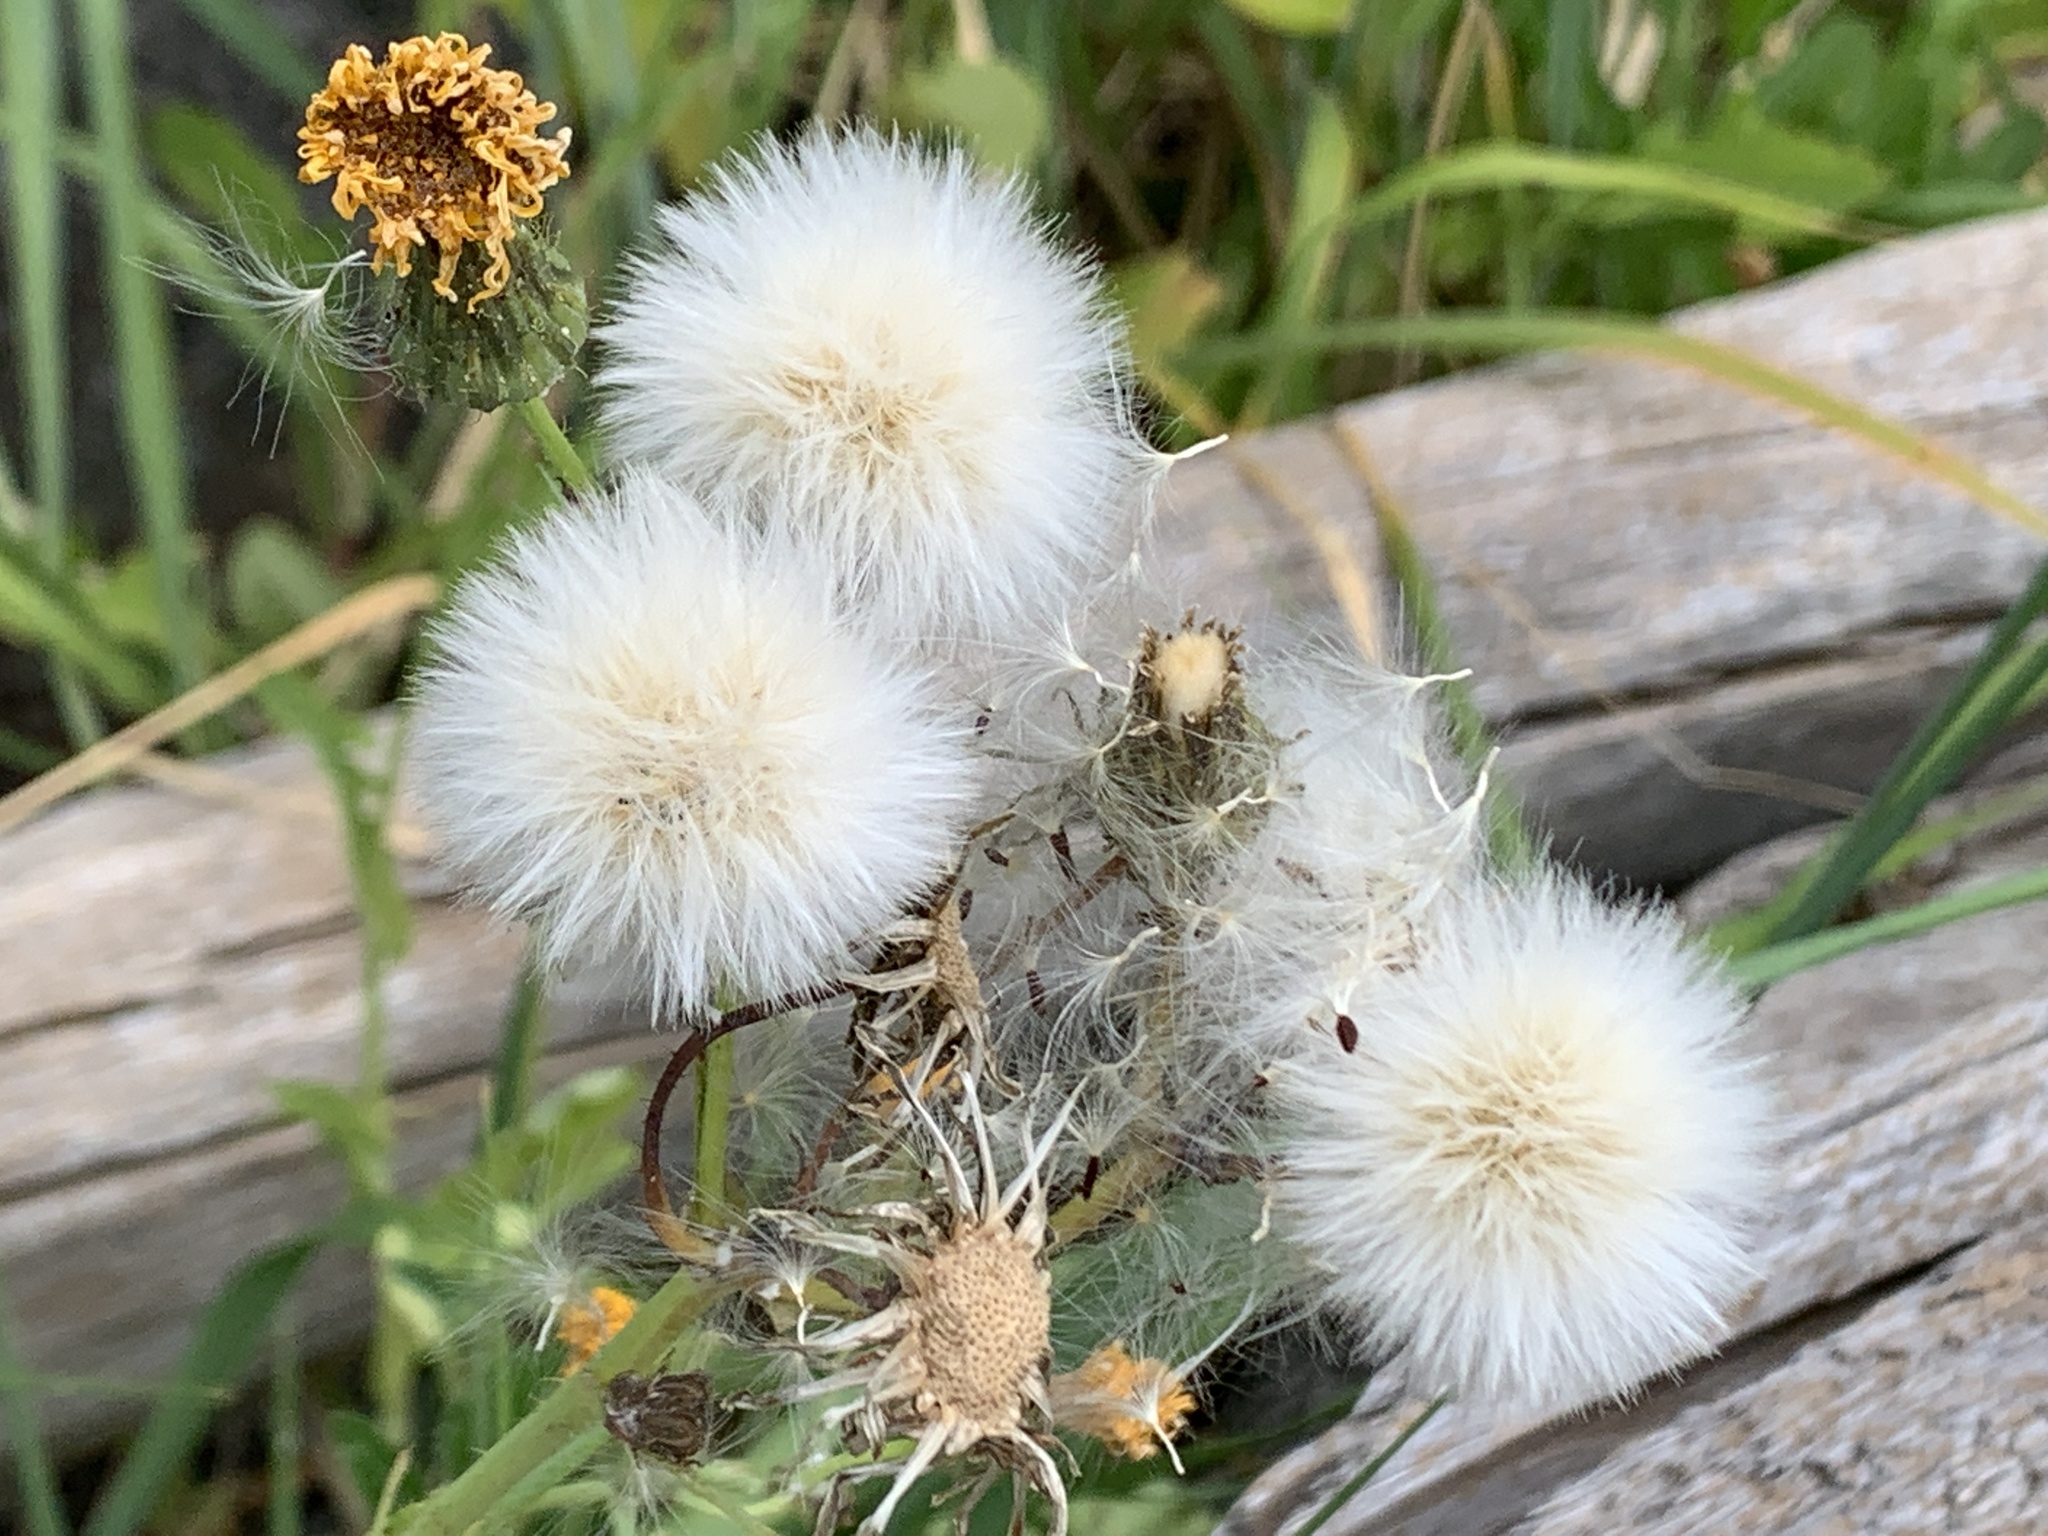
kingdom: Plantae
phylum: Tracheophyta
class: Magnoliopsida
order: Asterales
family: Asteraceae
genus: Sonchus
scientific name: Sonchus arvensis
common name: Perennial sow-thistle
